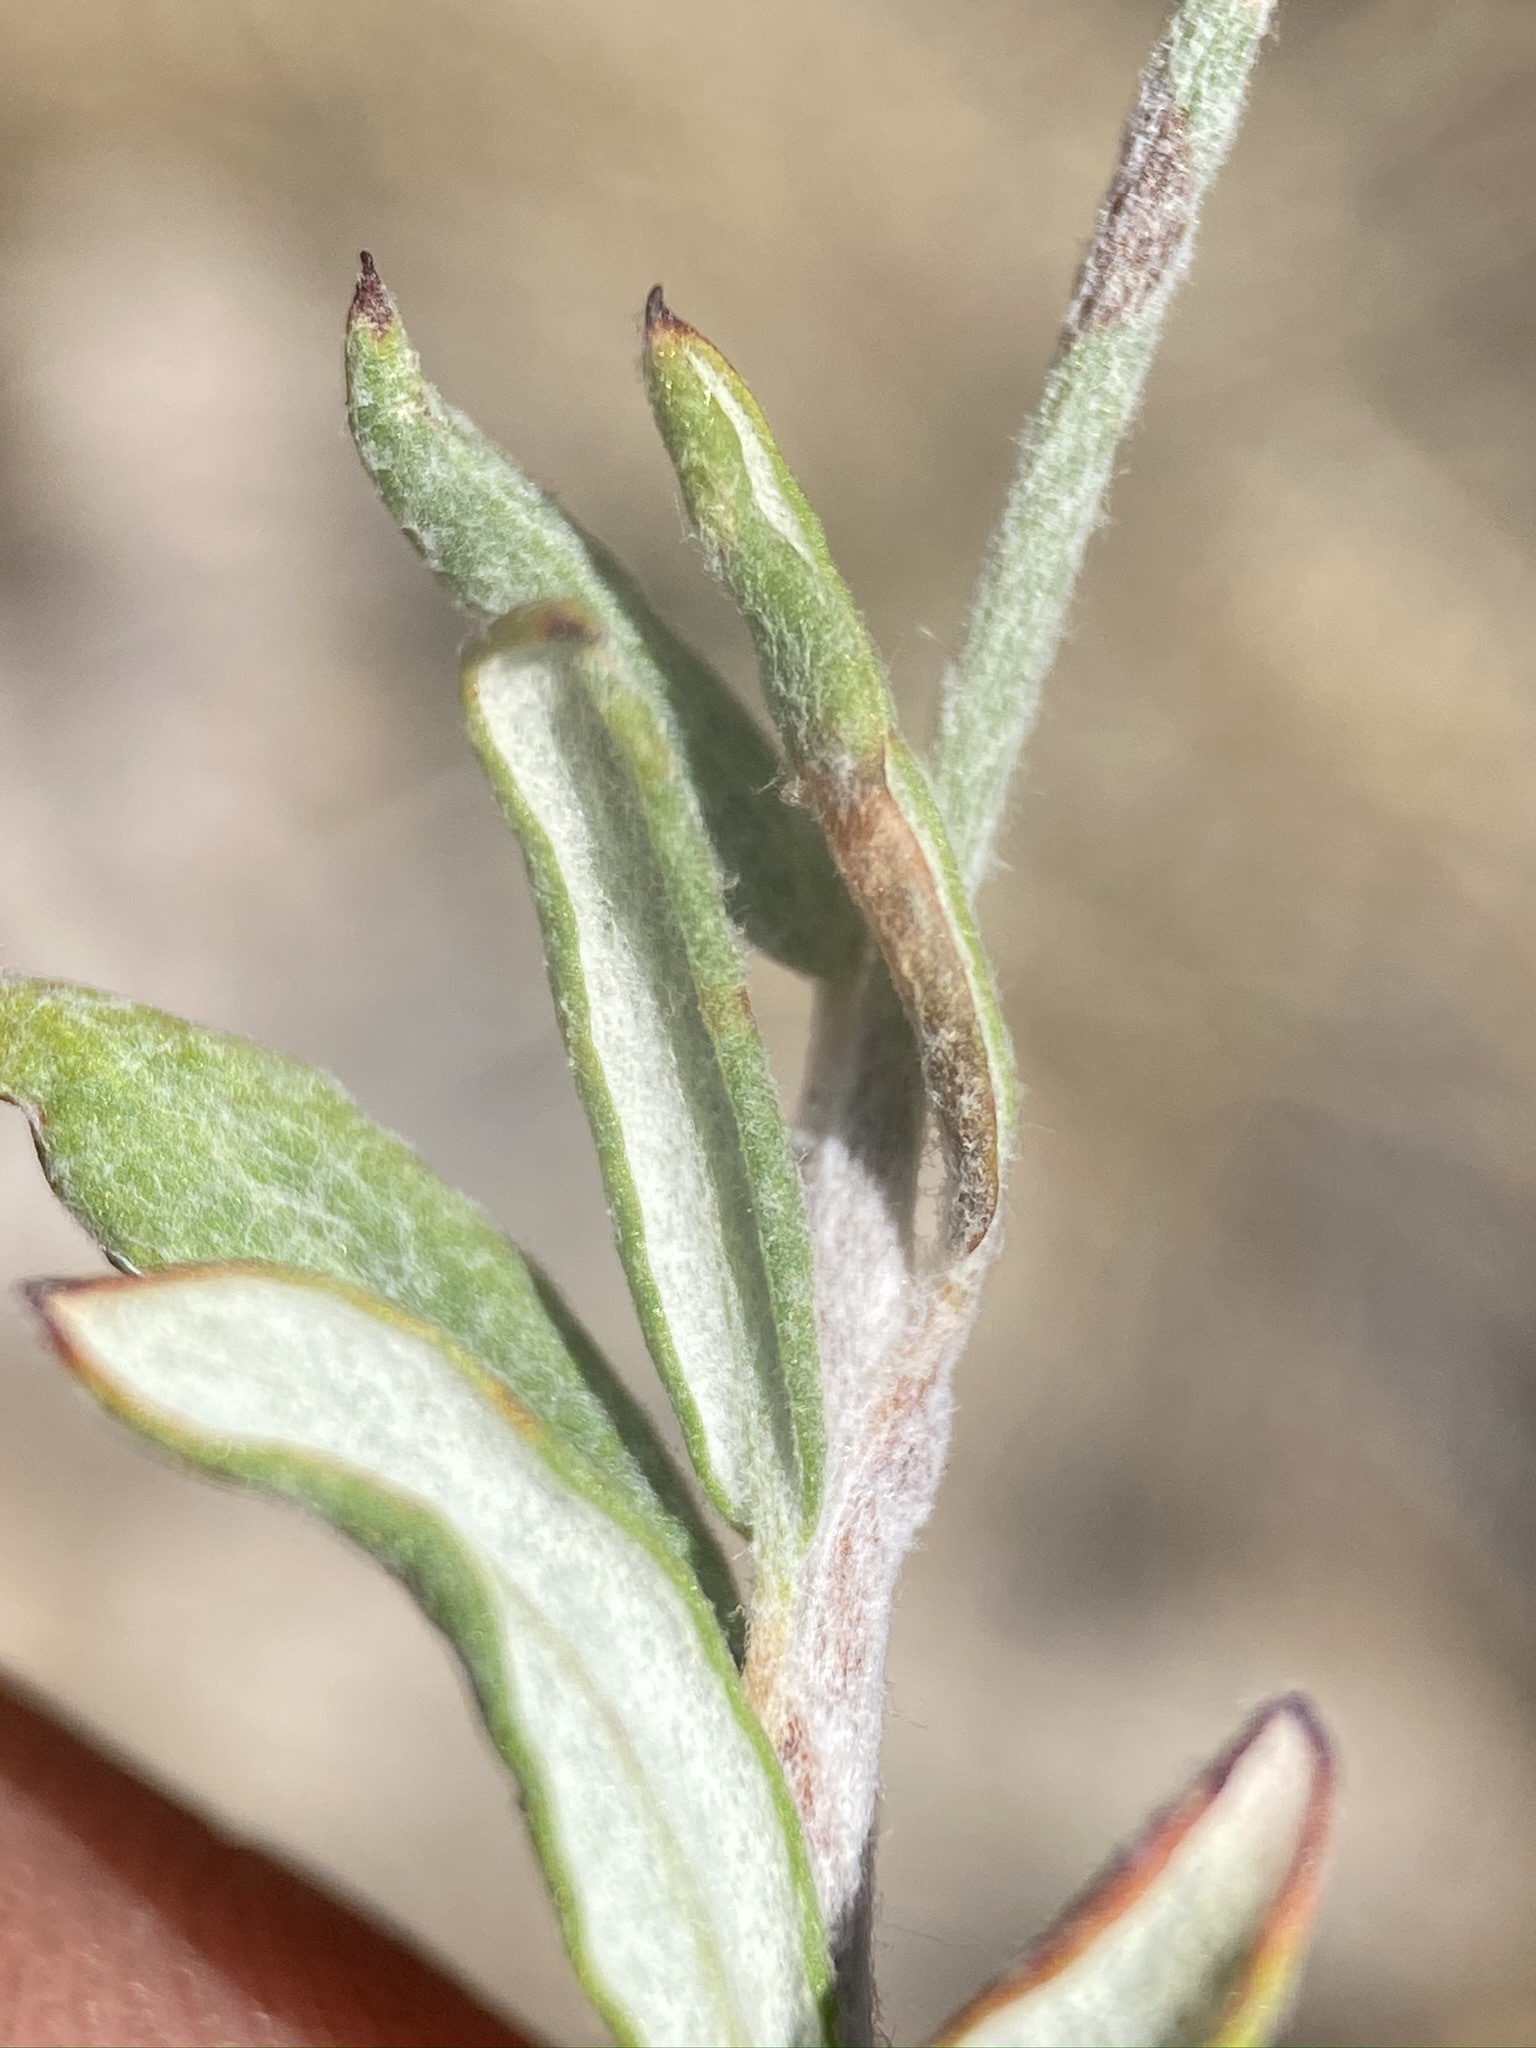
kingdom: Plantae
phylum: Tracheophyta
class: Magnoliopsida
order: Caryophyllales
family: Polygonaceae
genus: Eriogonum
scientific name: Eriogonum microtheca
